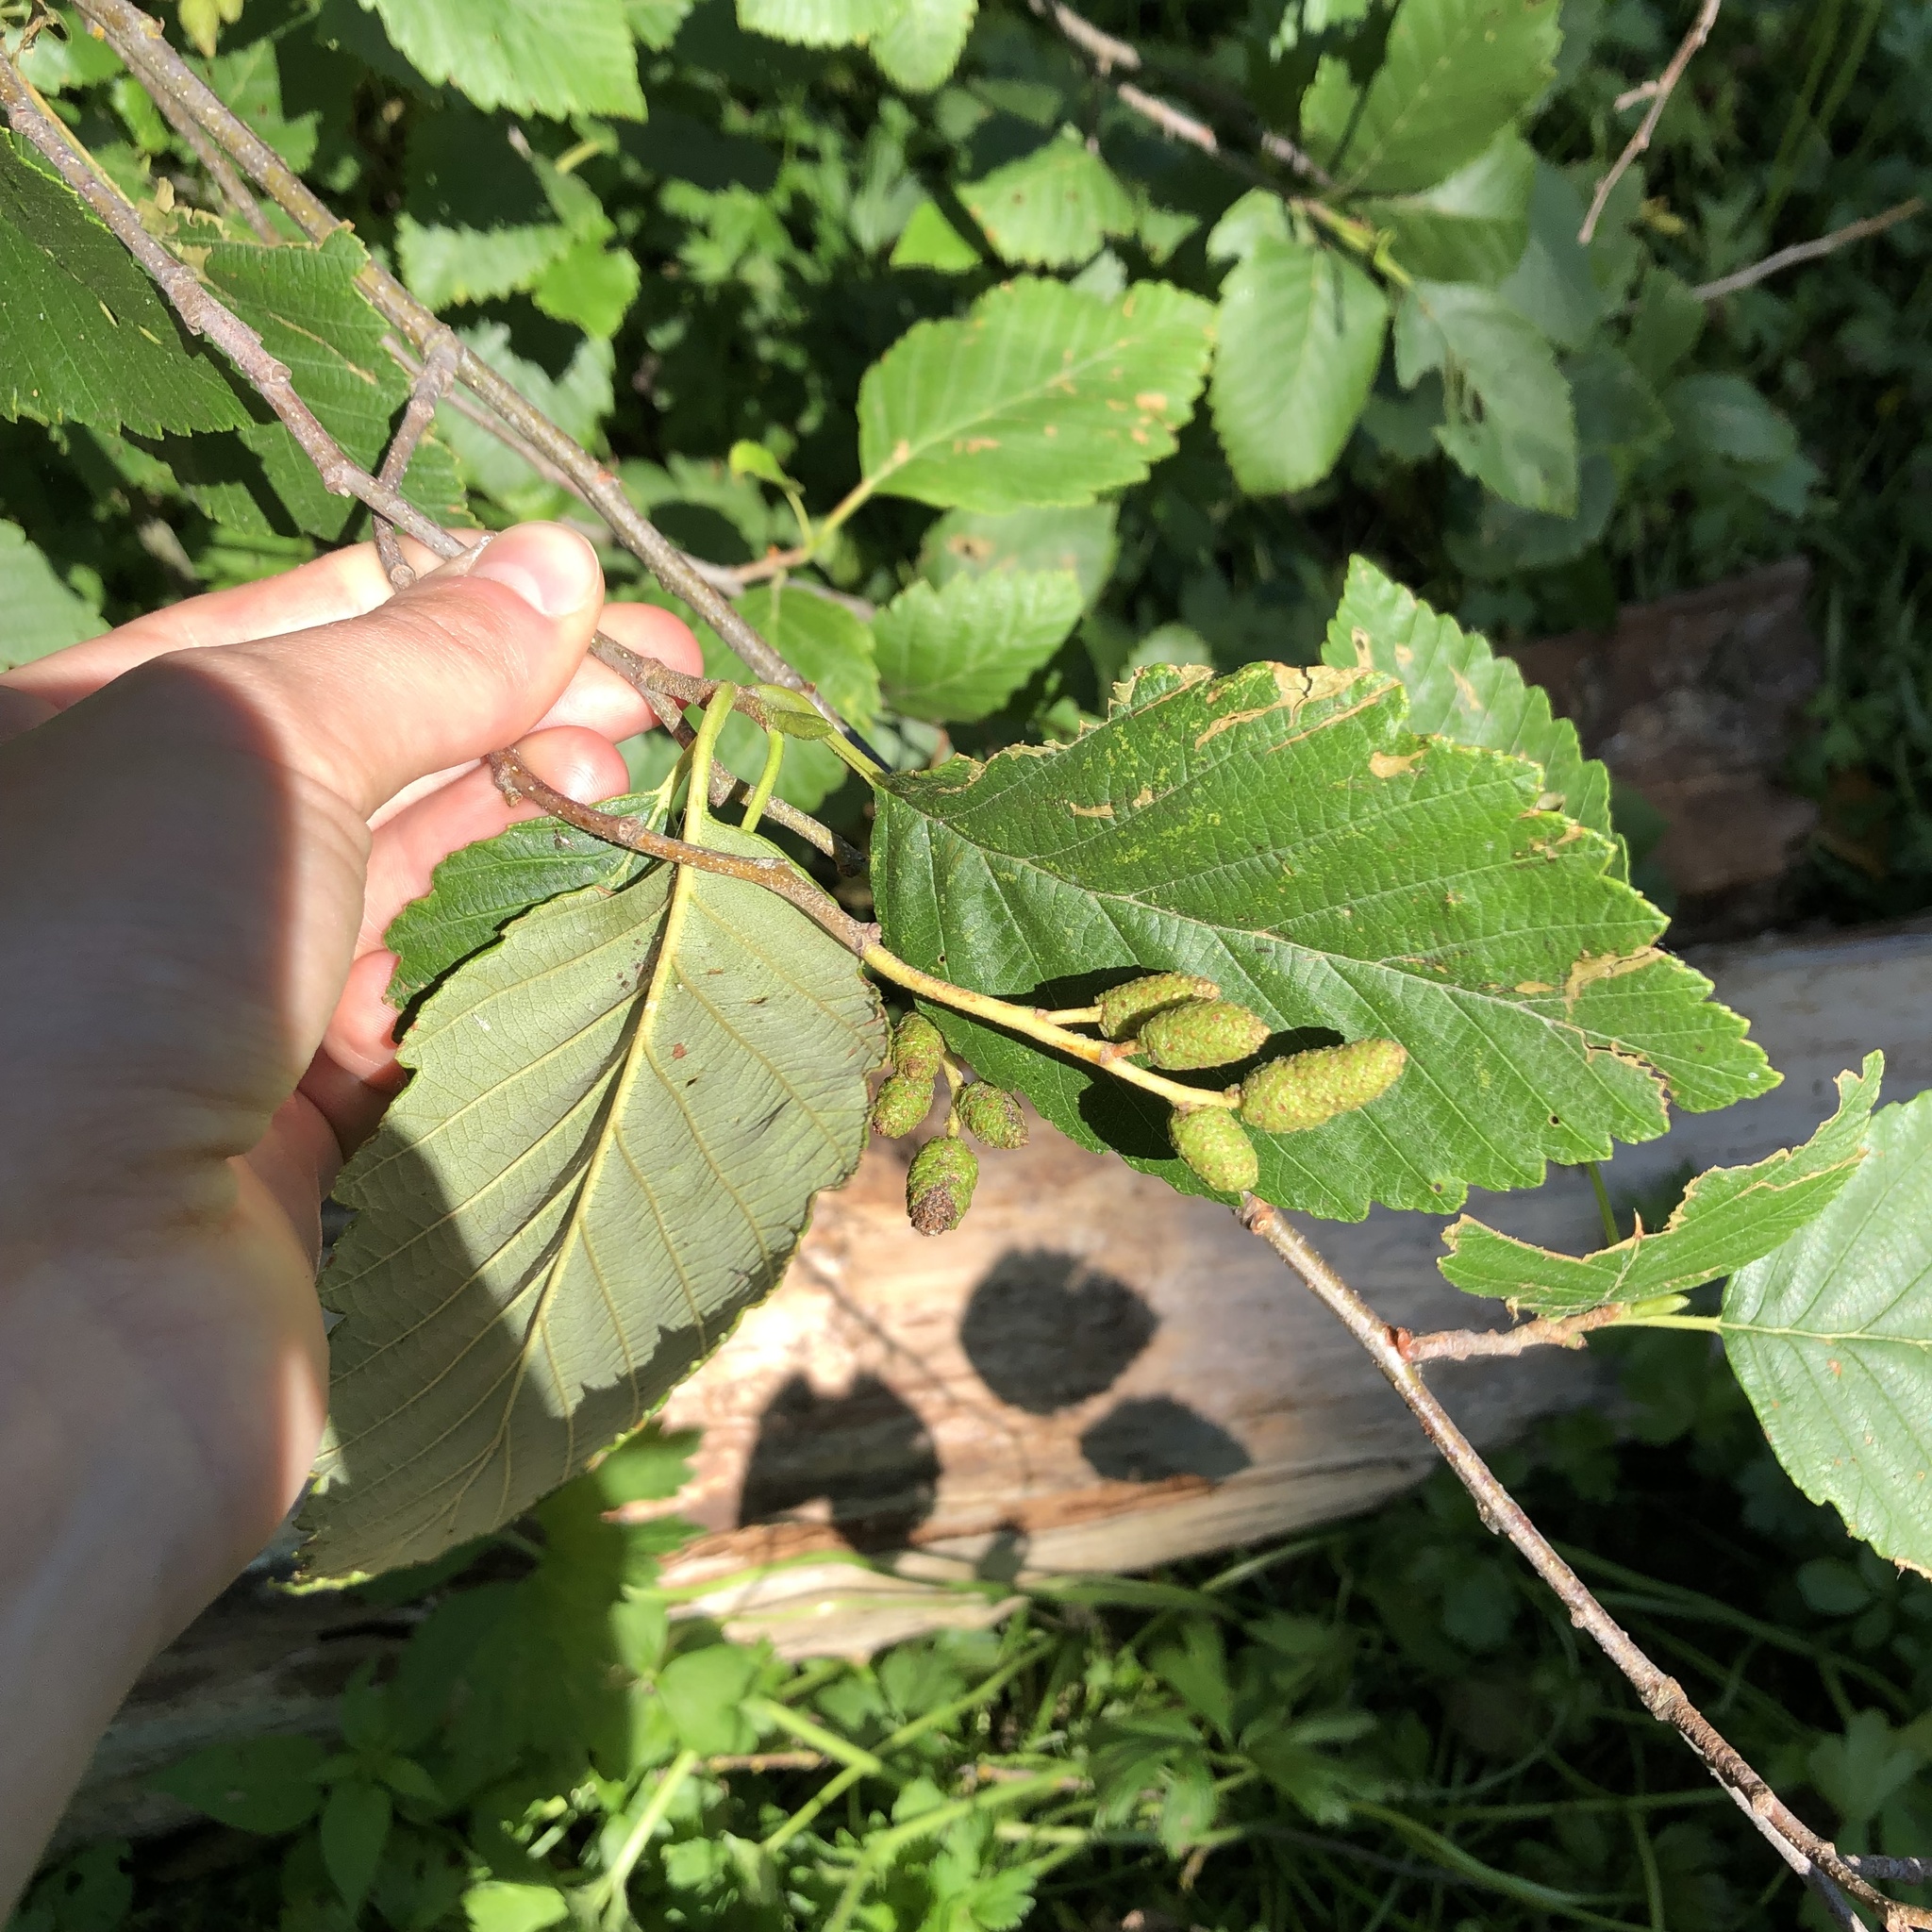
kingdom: Plantae
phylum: Tracheophyta
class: Magnoliopsida
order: Fagales
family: Betulaceae
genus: Alnus
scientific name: Alnus rubra
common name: Red alder
